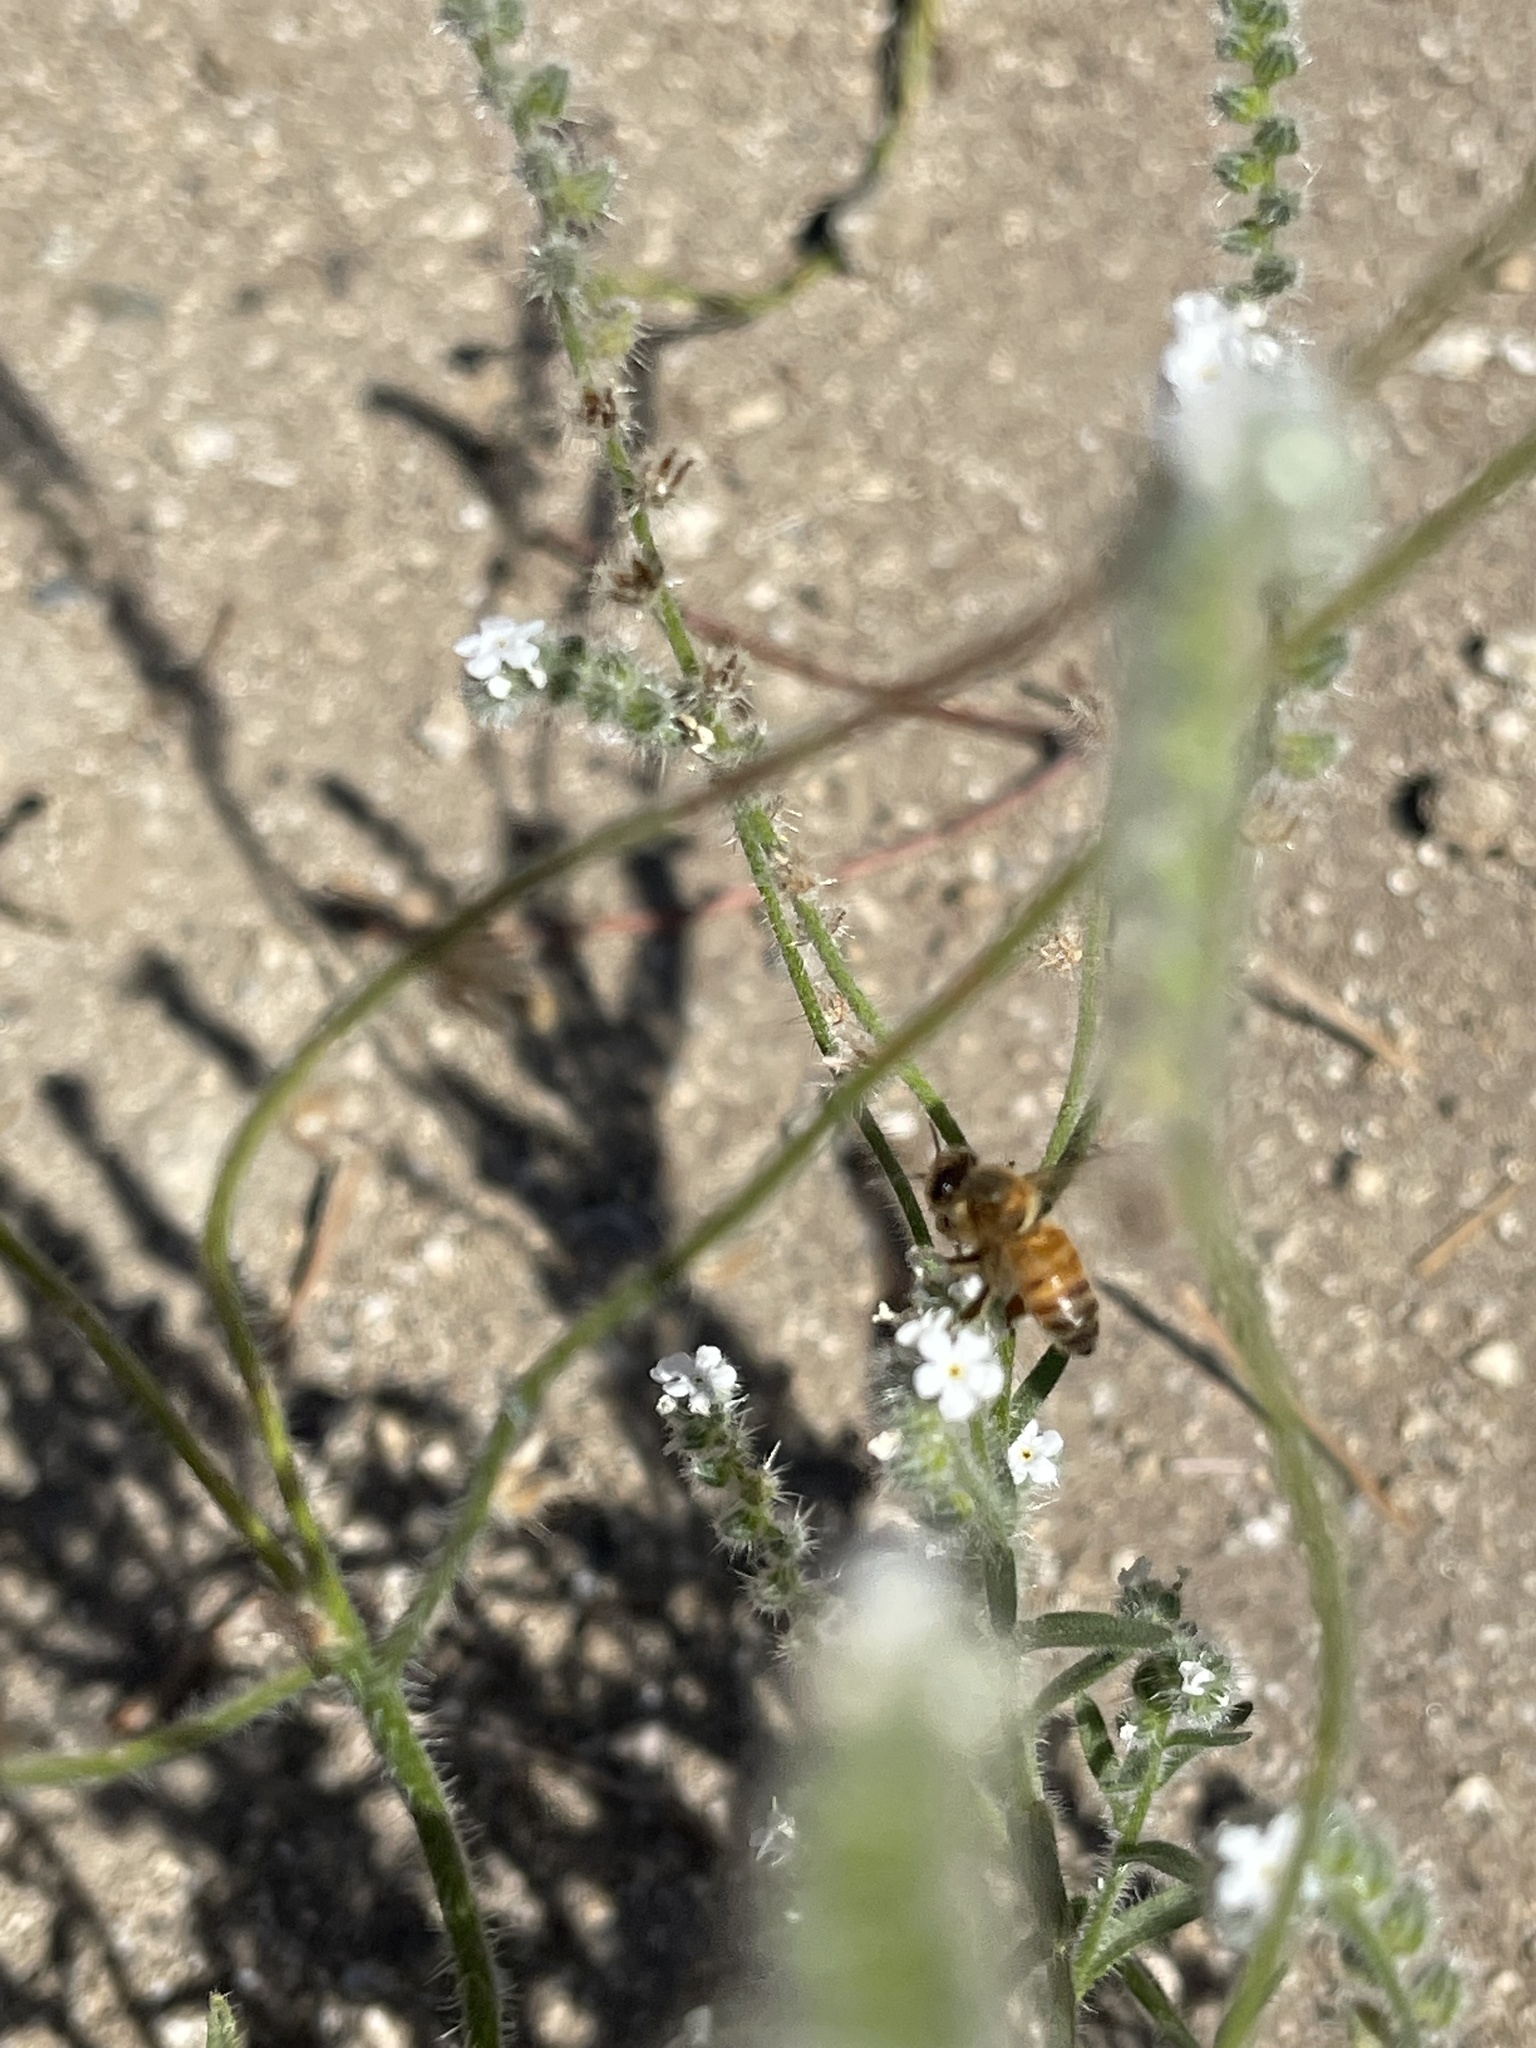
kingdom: Animalia
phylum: Arthropoda
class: Insecta
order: Hymenoptera
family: Apidae
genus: Apis
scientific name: Apis mellifera
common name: Honey bee
